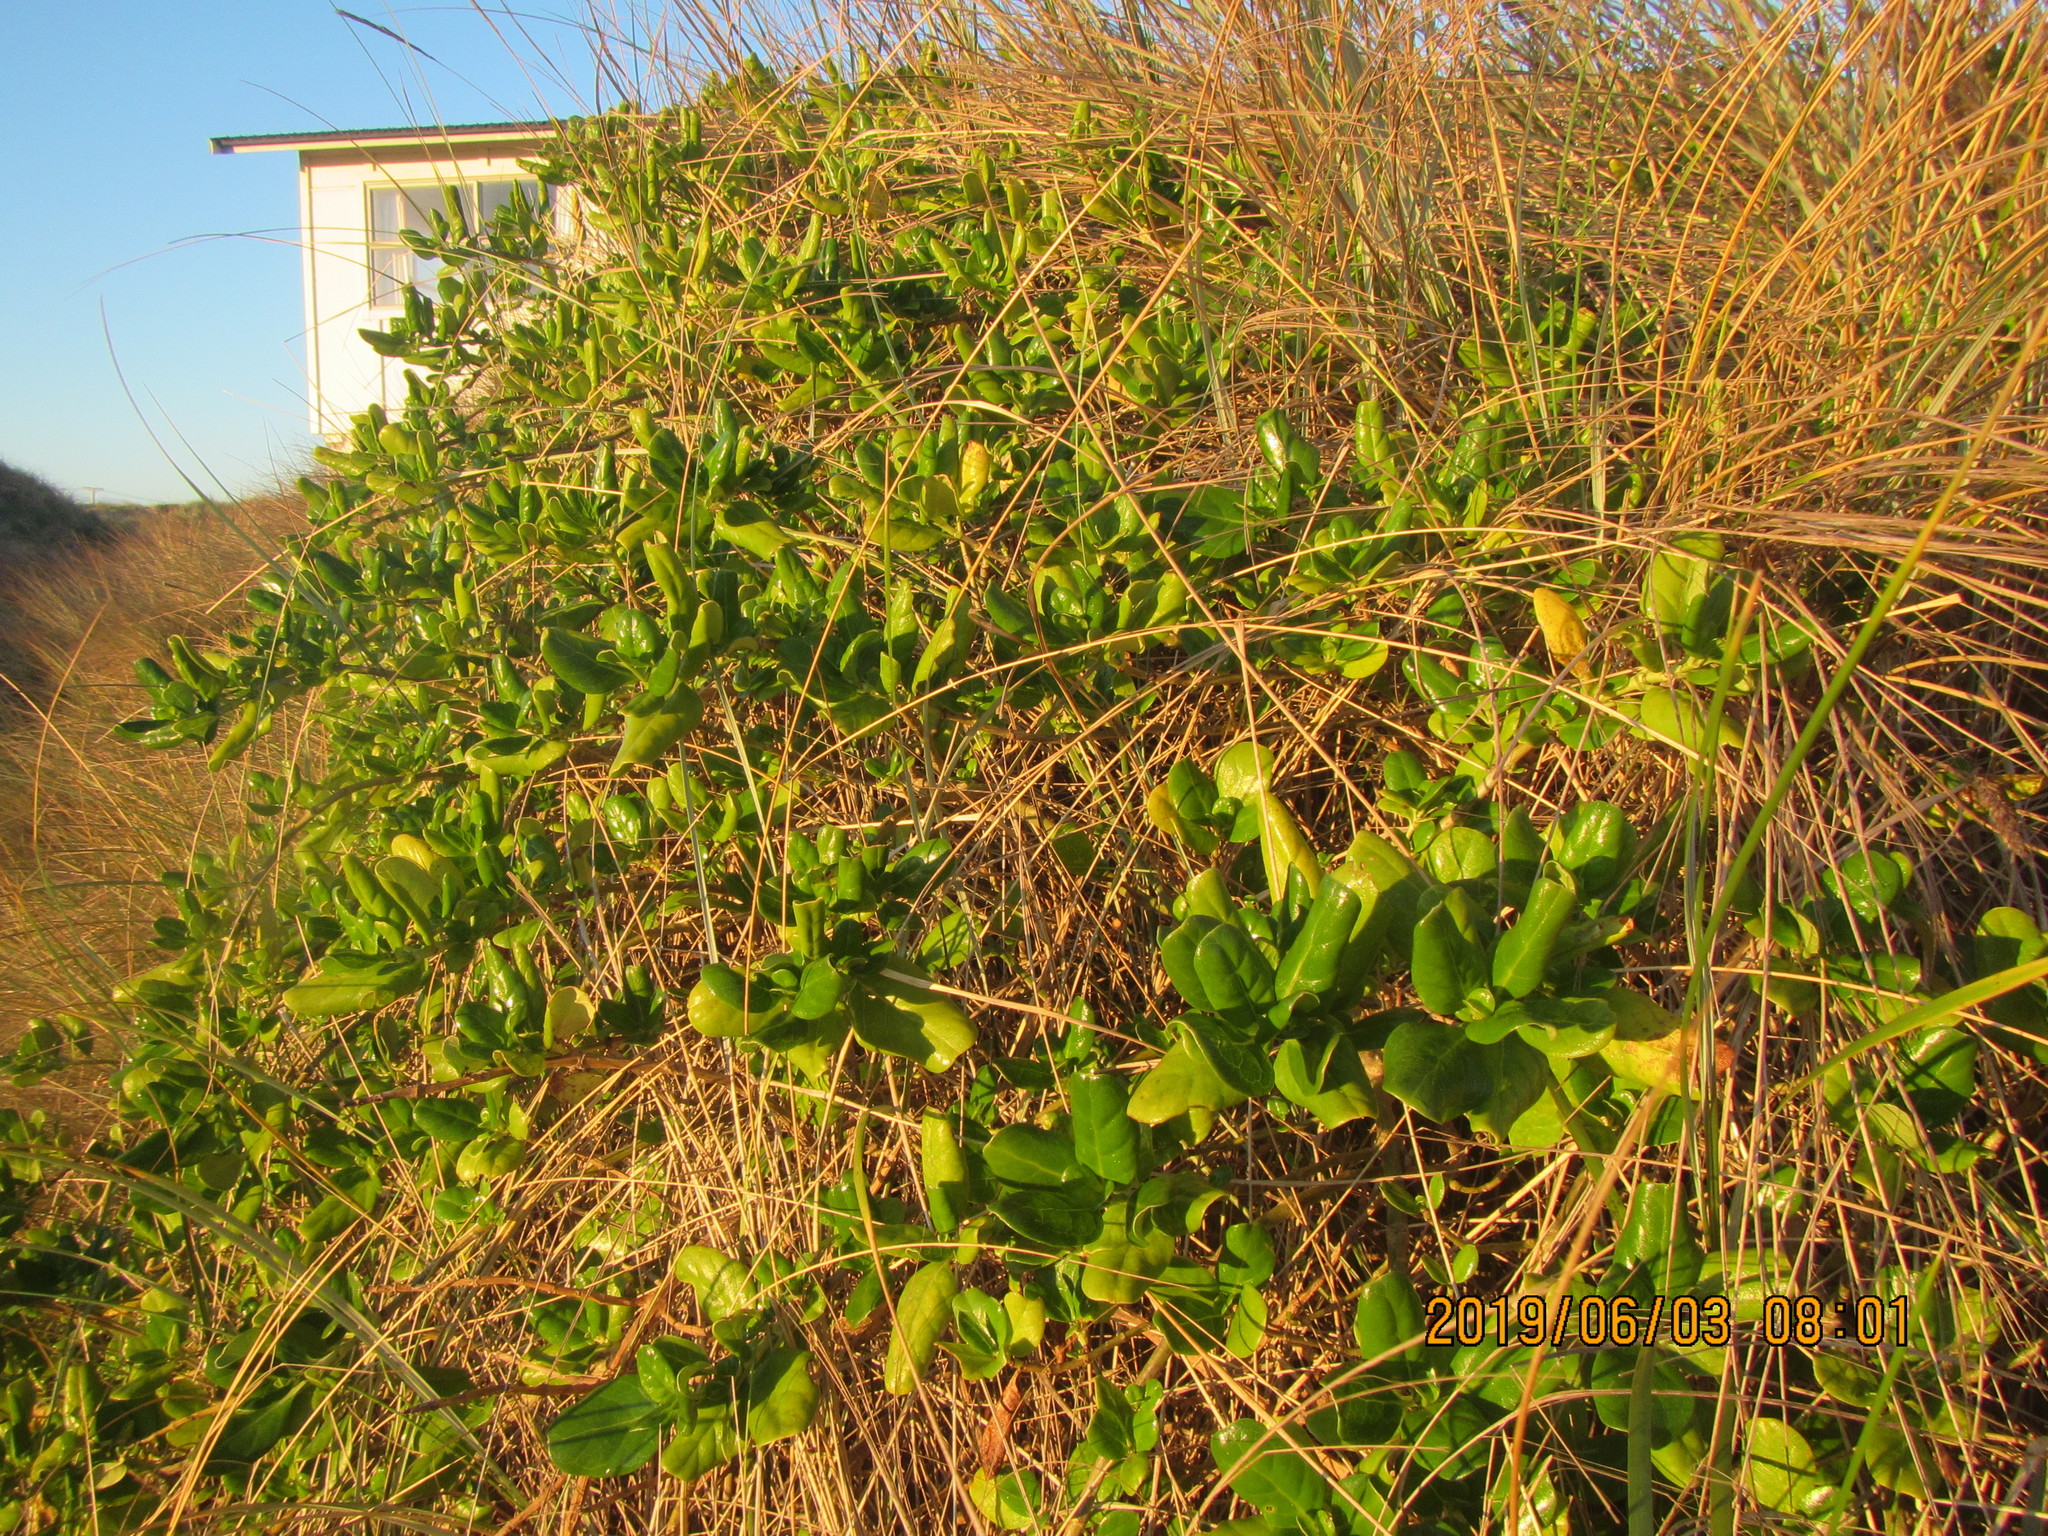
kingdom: Plantae
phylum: Tracheophyta
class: Magnoliopsida
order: Gentianales
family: Rubiaceae
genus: Coprosma
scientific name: Coprosma repens
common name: Tree bedstraw
